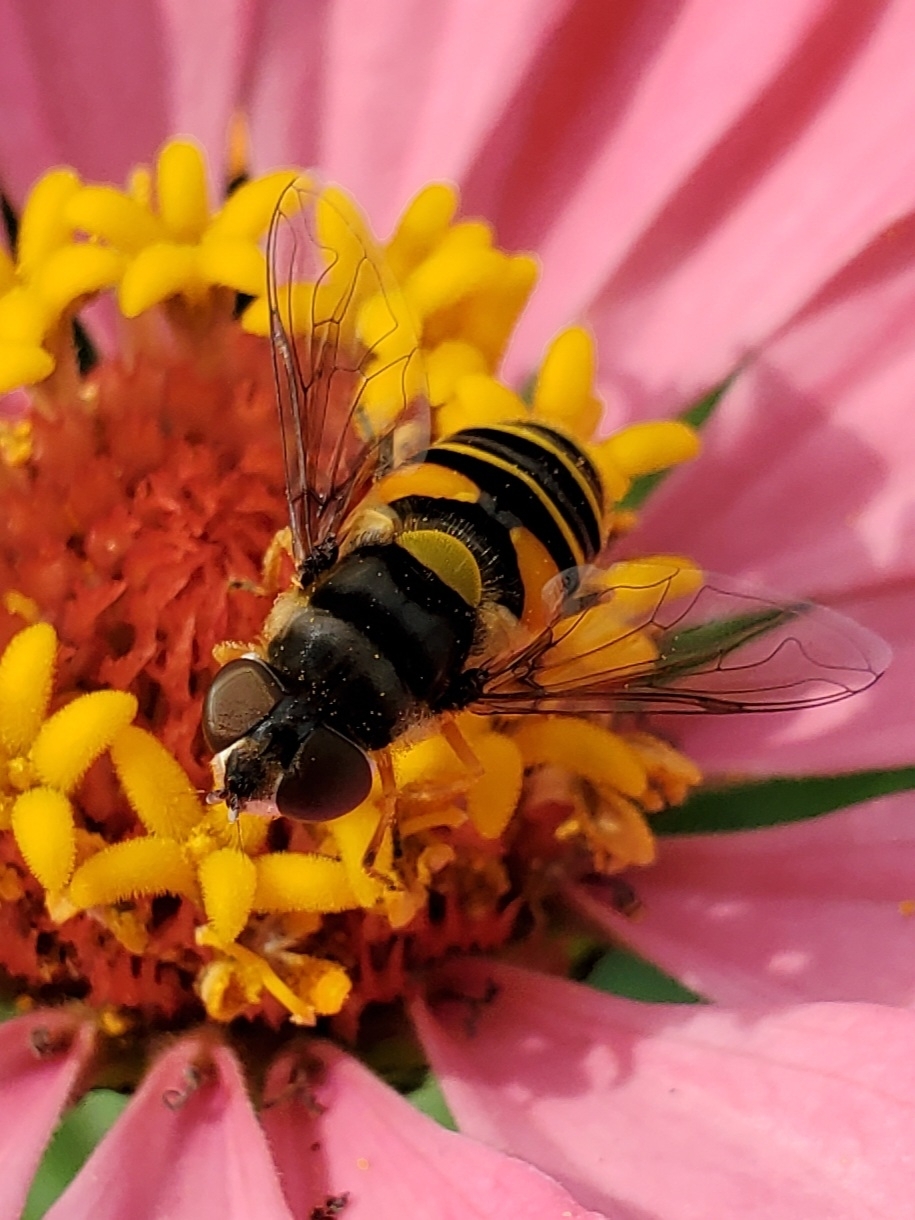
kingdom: Animalia
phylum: Arthropoda
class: Insecta
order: Diptera
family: Syrphidae
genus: Eristalis
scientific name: Eristalis transversa
